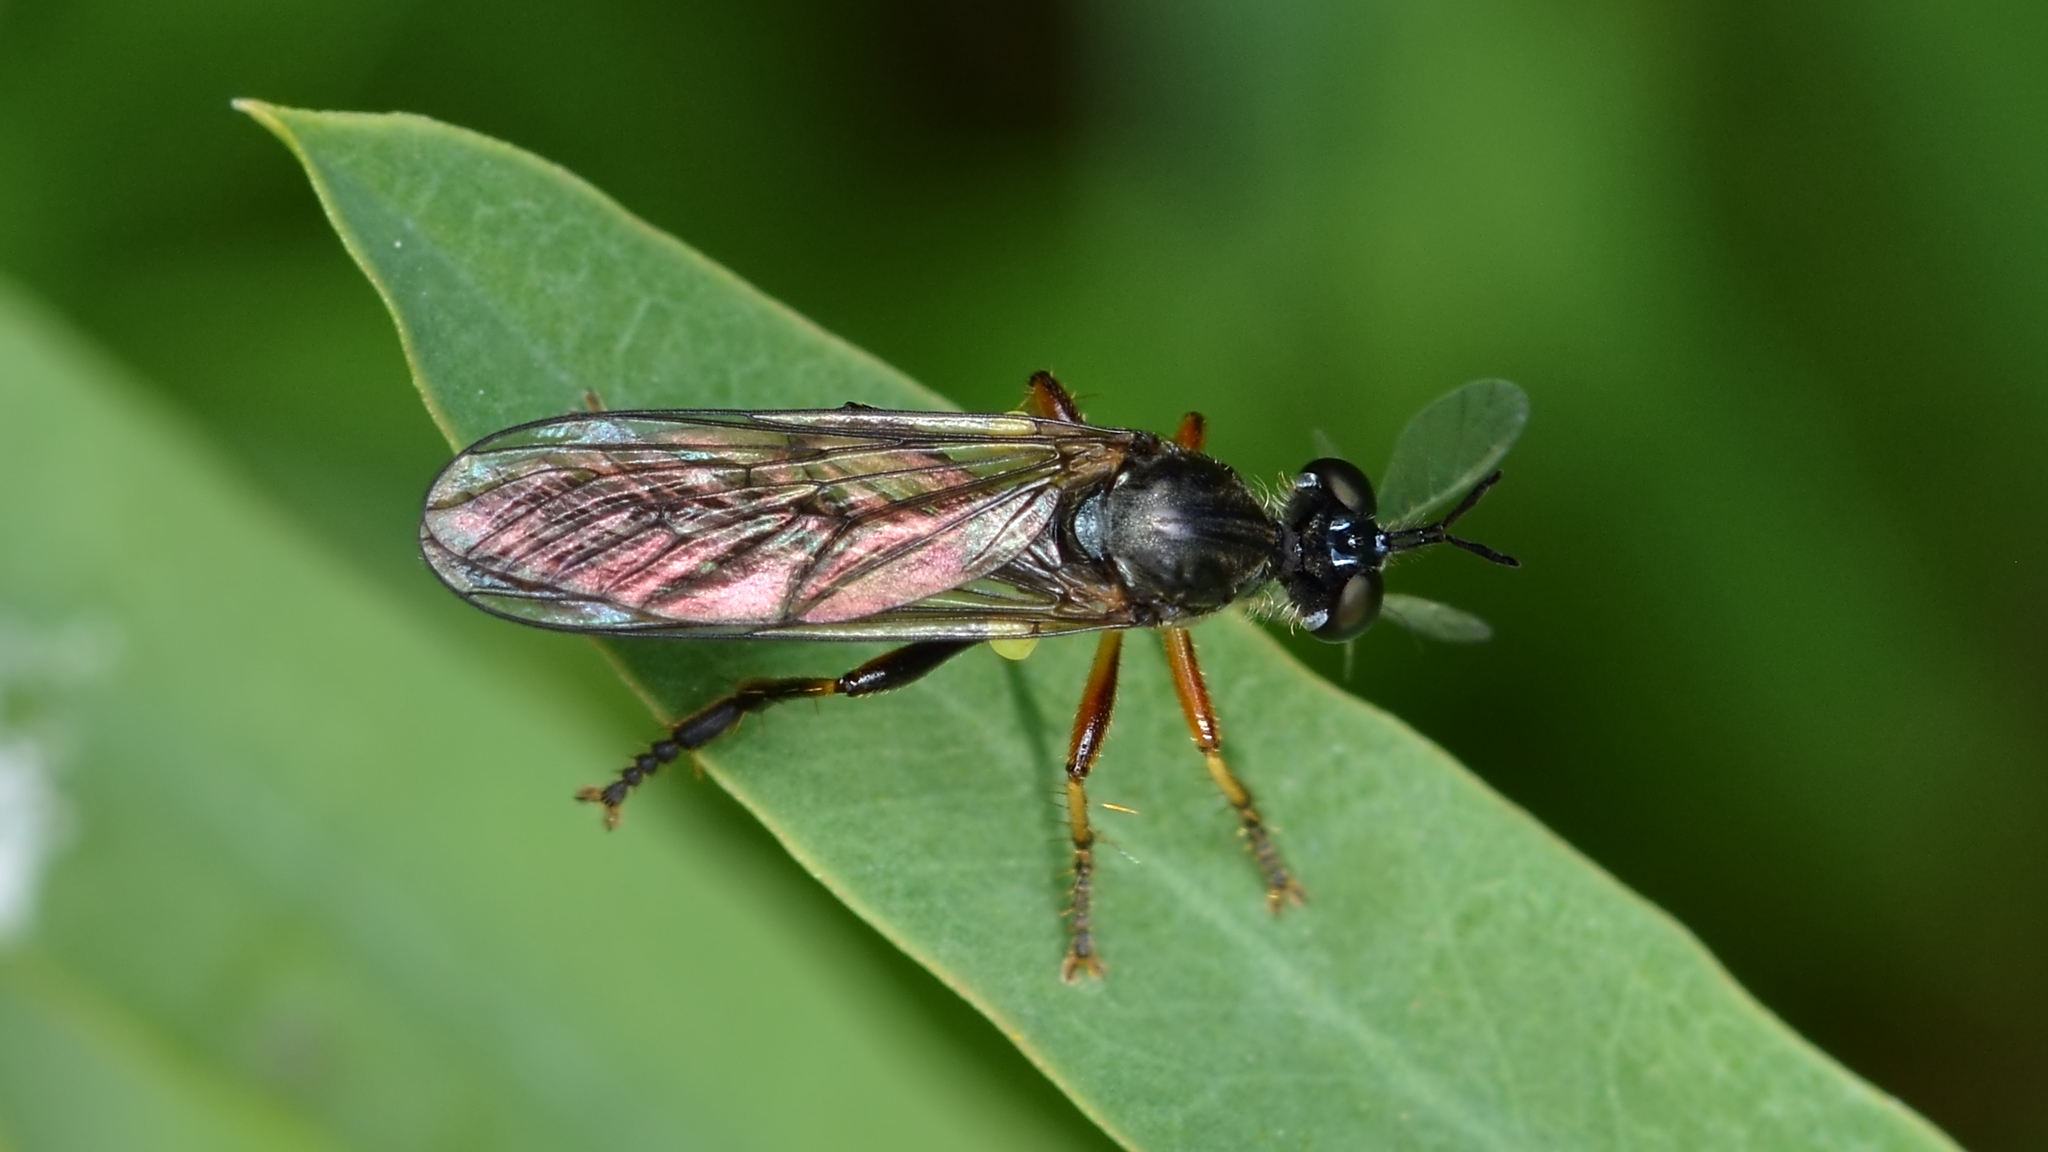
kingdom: Animalia
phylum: Arthropoda
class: Insecta
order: Diptera
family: Asilidae
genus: Dioctria
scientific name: Dioctria hyalipennis
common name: Stripe-legged robberfly
